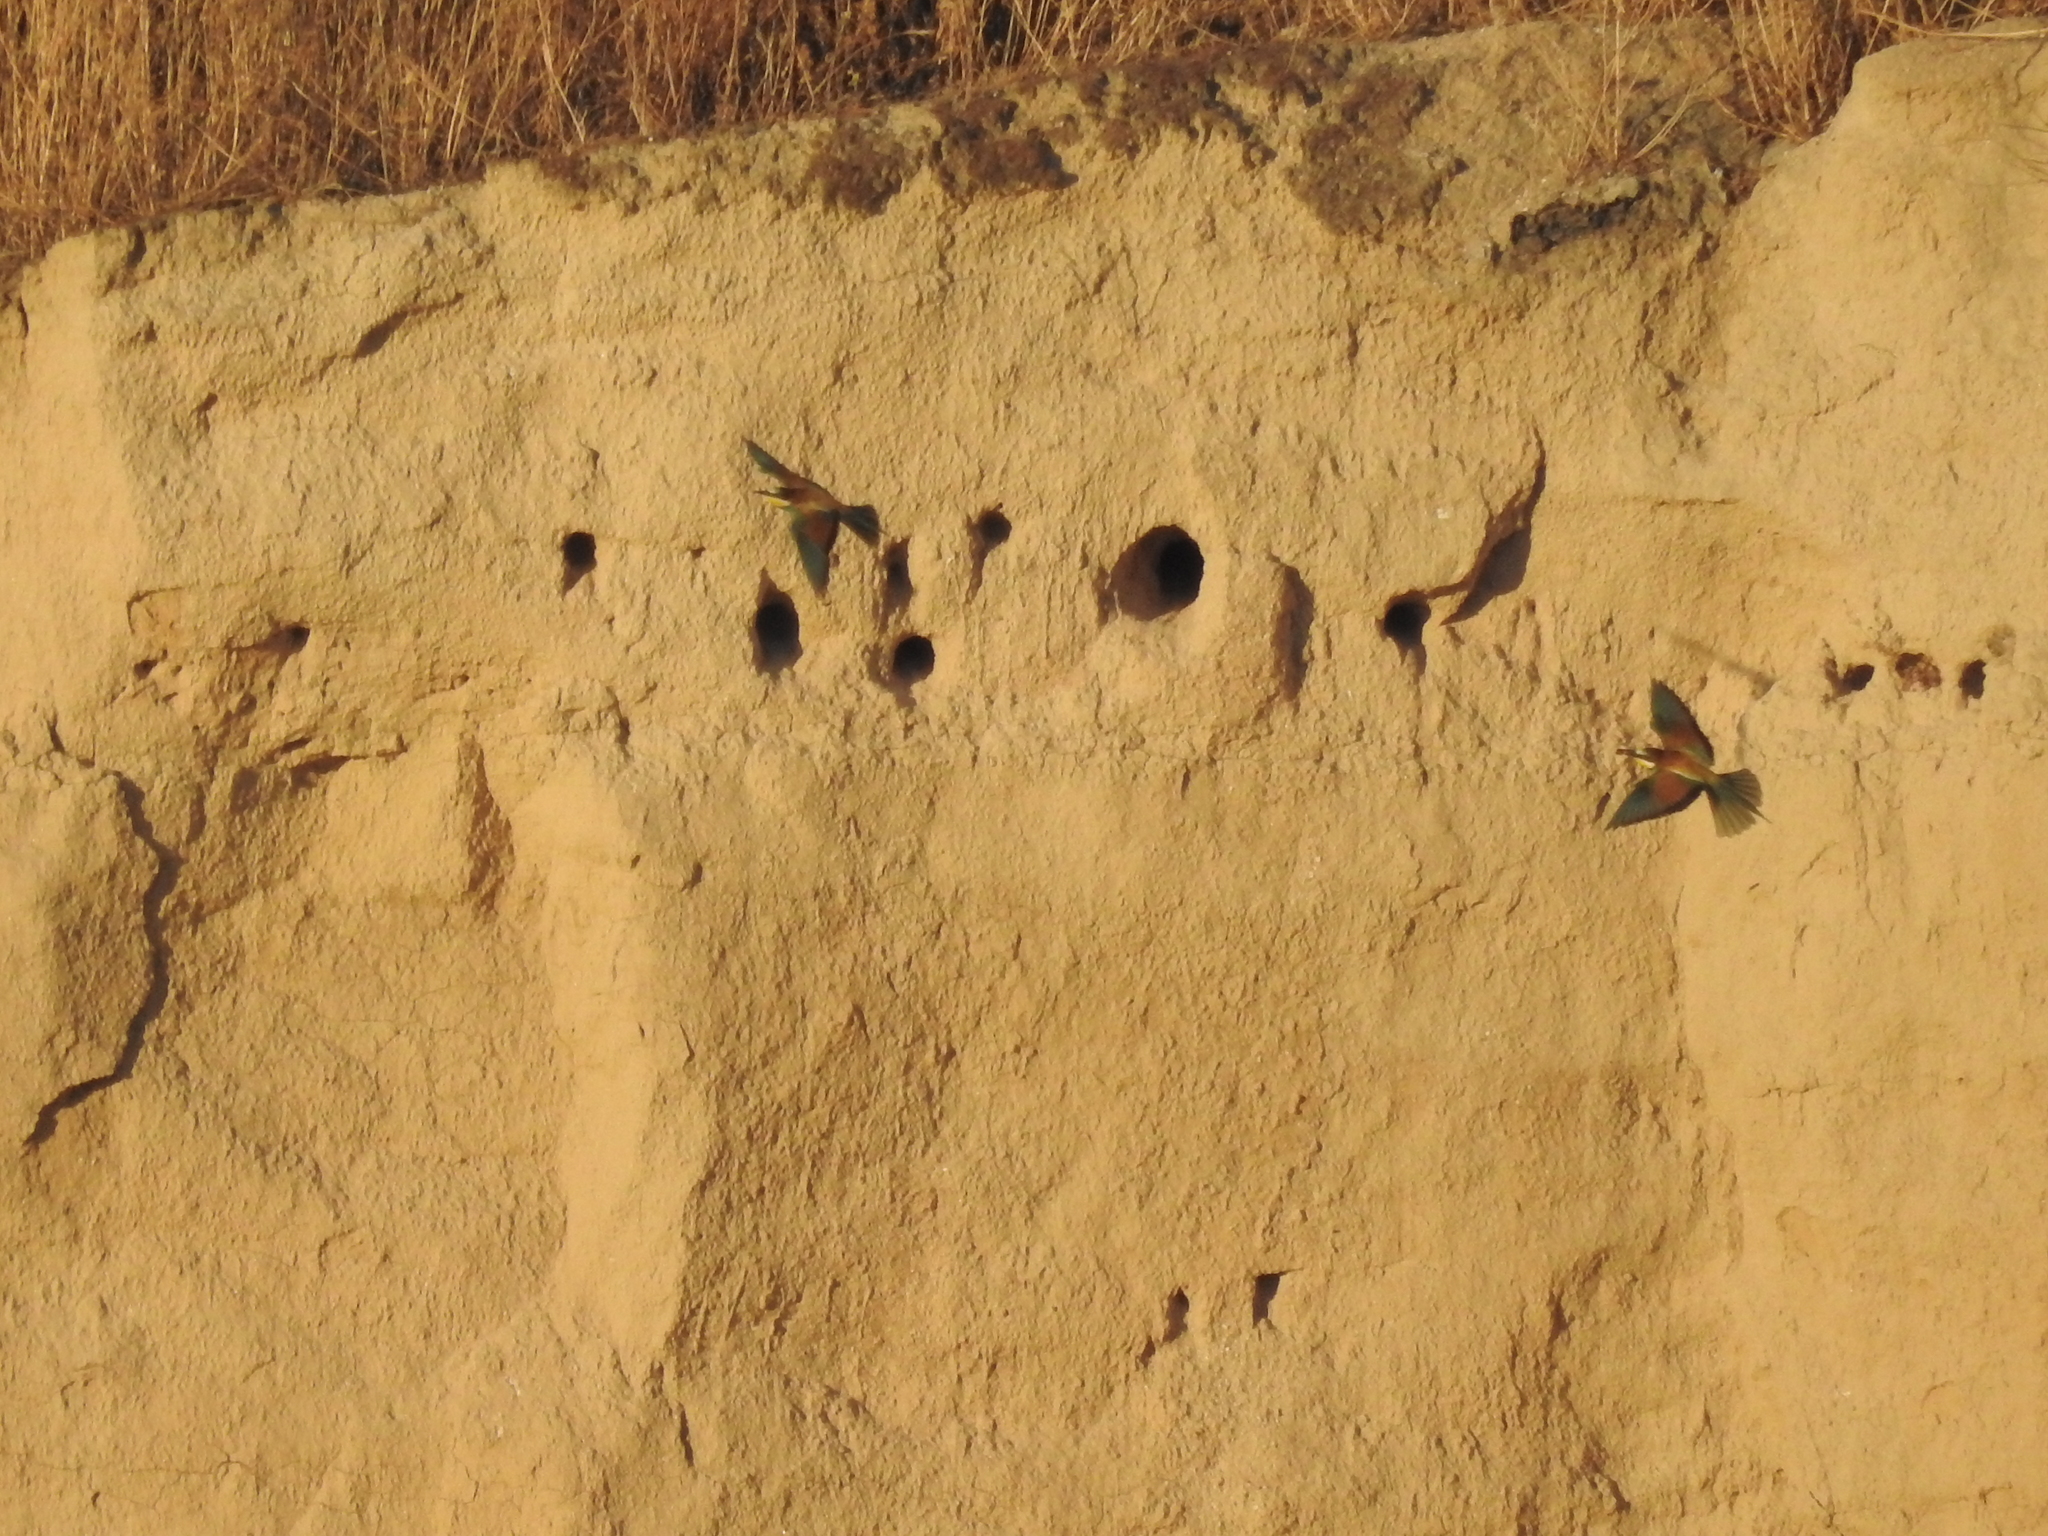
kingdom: Animalia
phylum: Chordata
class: Aves
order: Coraciiformes
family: Meropidae
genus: Merops
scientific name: Merops apiaster
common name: European bee-eater
